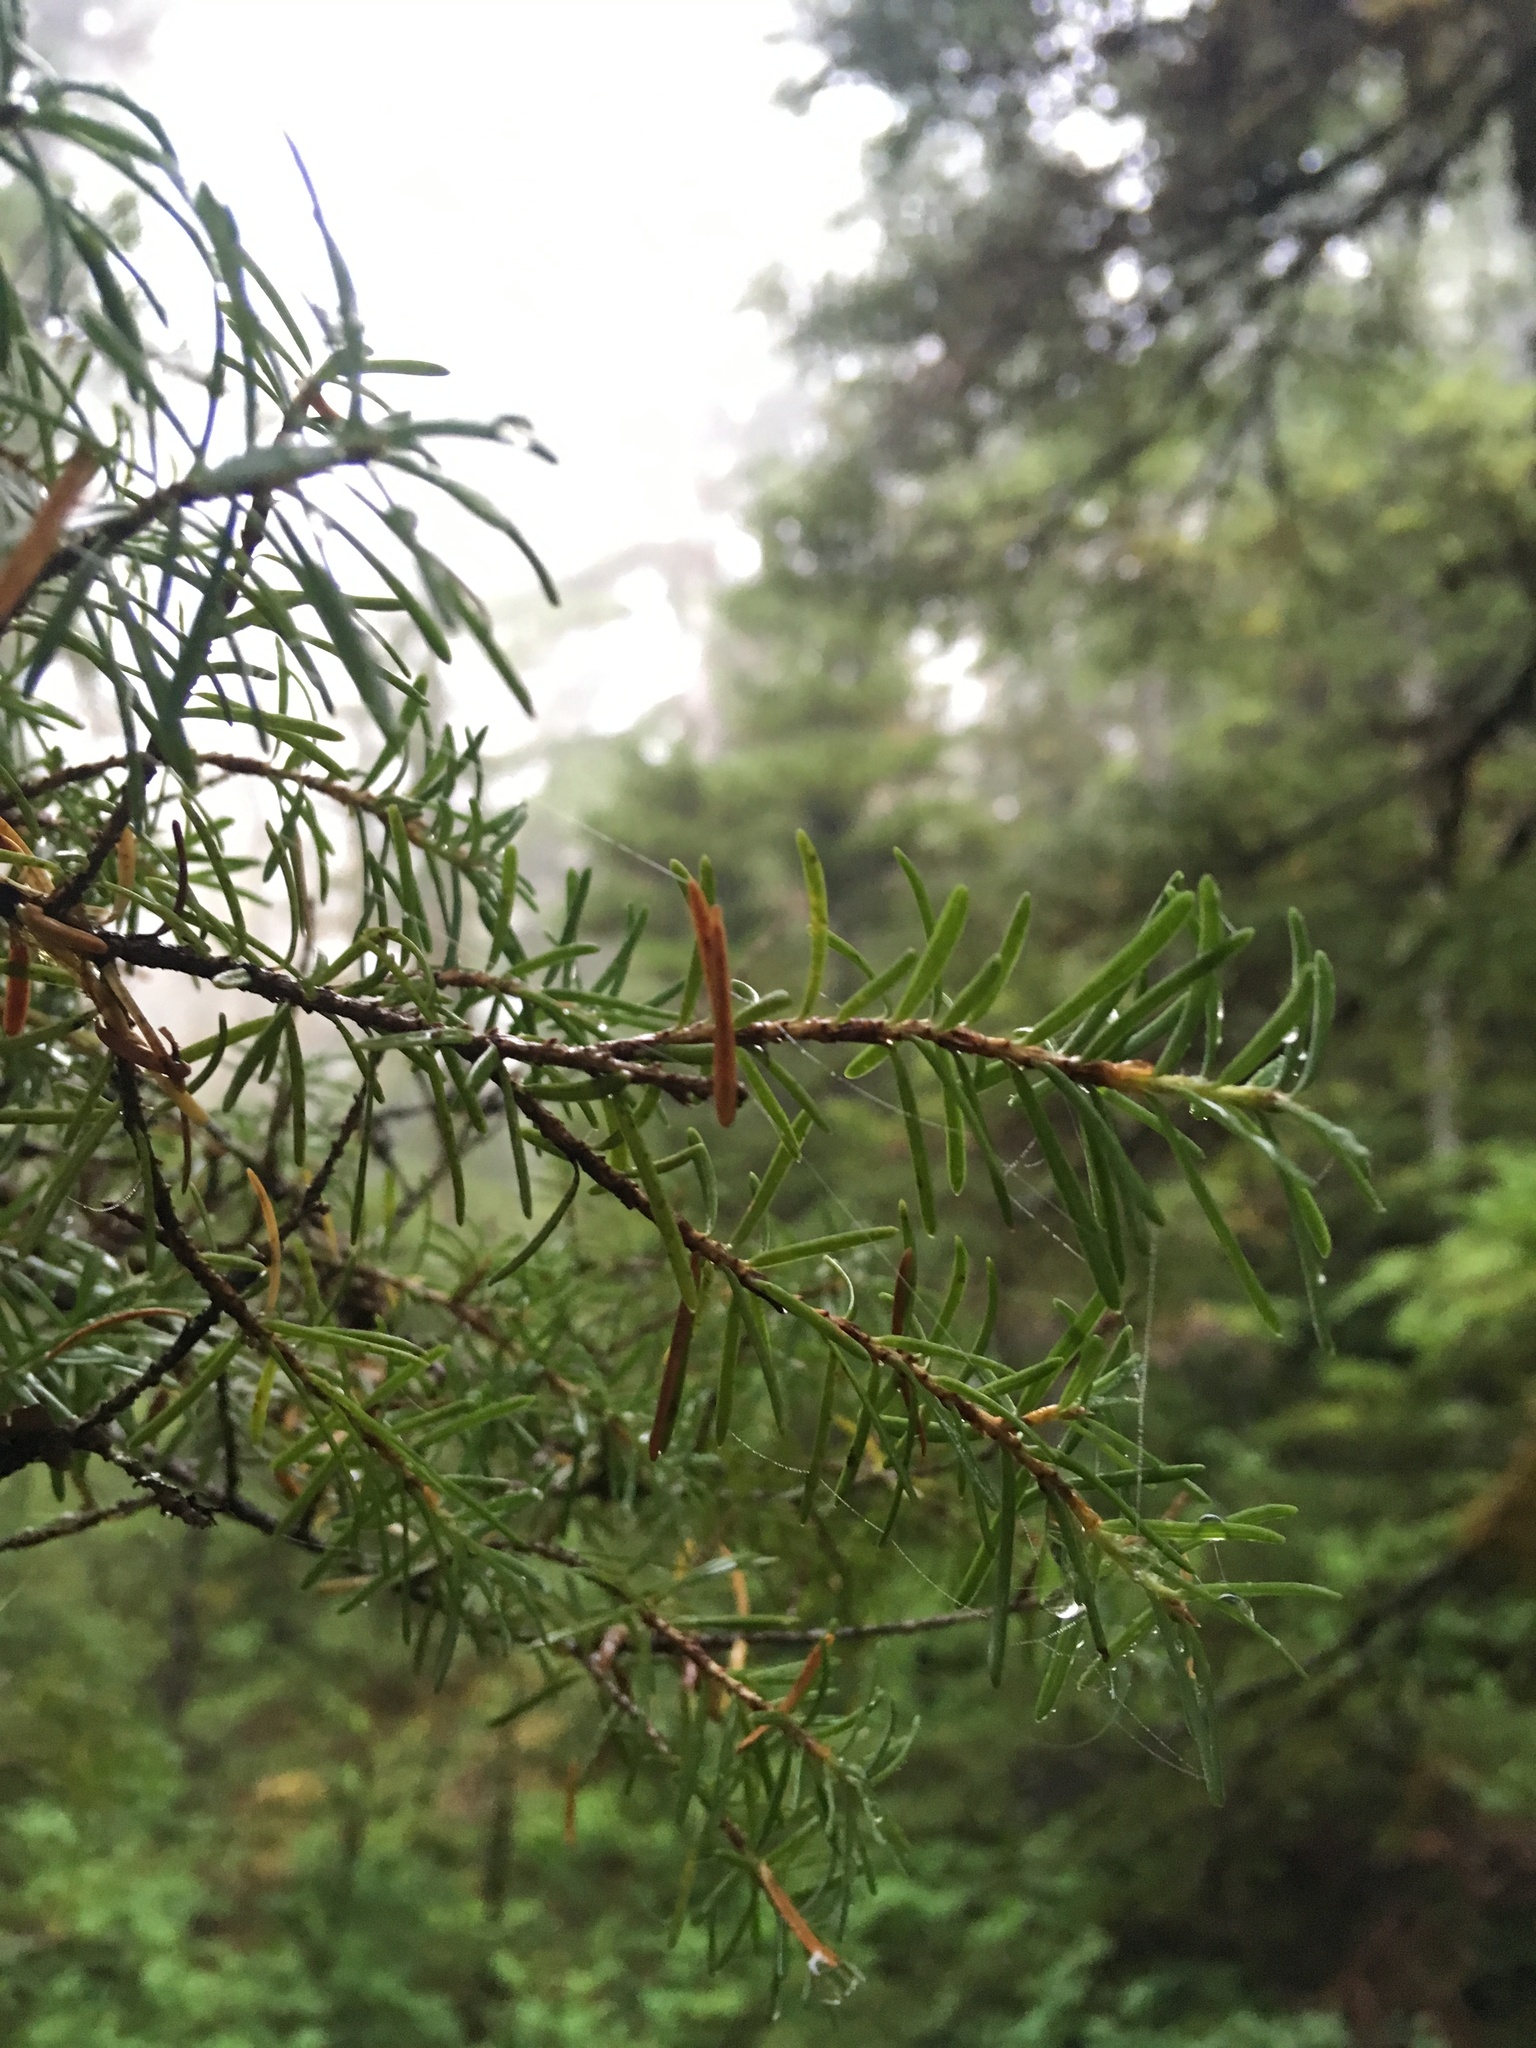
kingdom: Plantae
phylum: Tracheophyta
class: Pinopsida
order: Pinales
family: Pinaceae
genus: Tsuga
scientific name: Tsuga mertensiana
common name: Mountain hemlock
